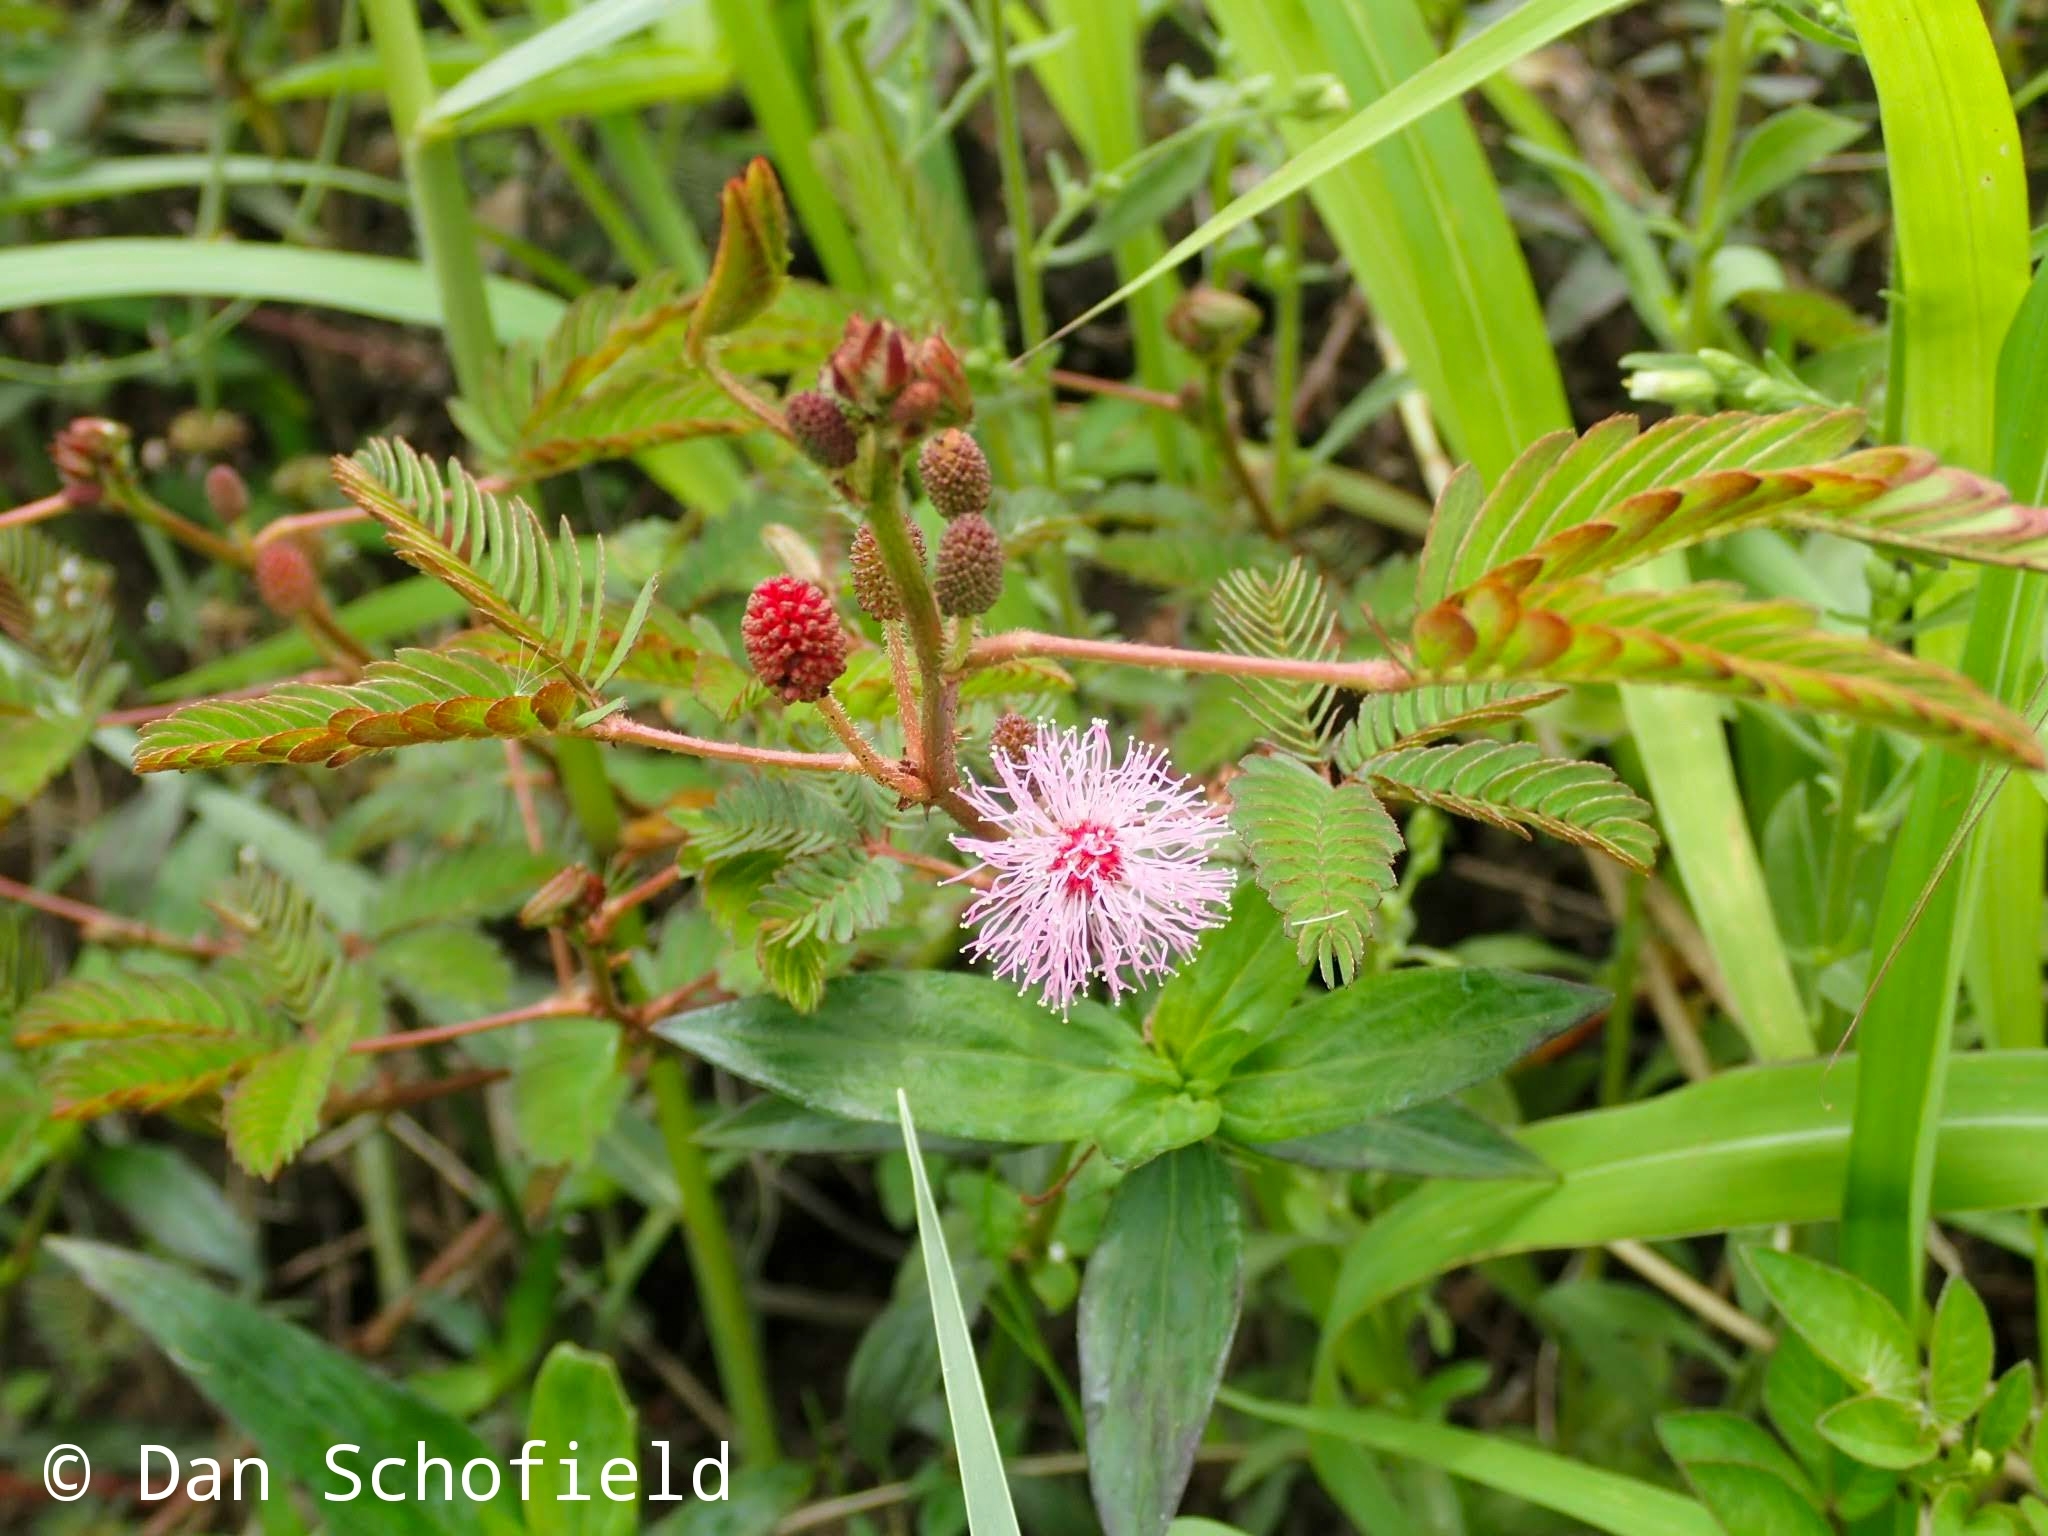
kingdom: Plantae
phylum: Tracheophyta
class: Magnoliopsida
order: Fabales
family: Fabaceae
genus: Mimosa
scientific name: Mimosa pudica
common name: Sensitive plant
